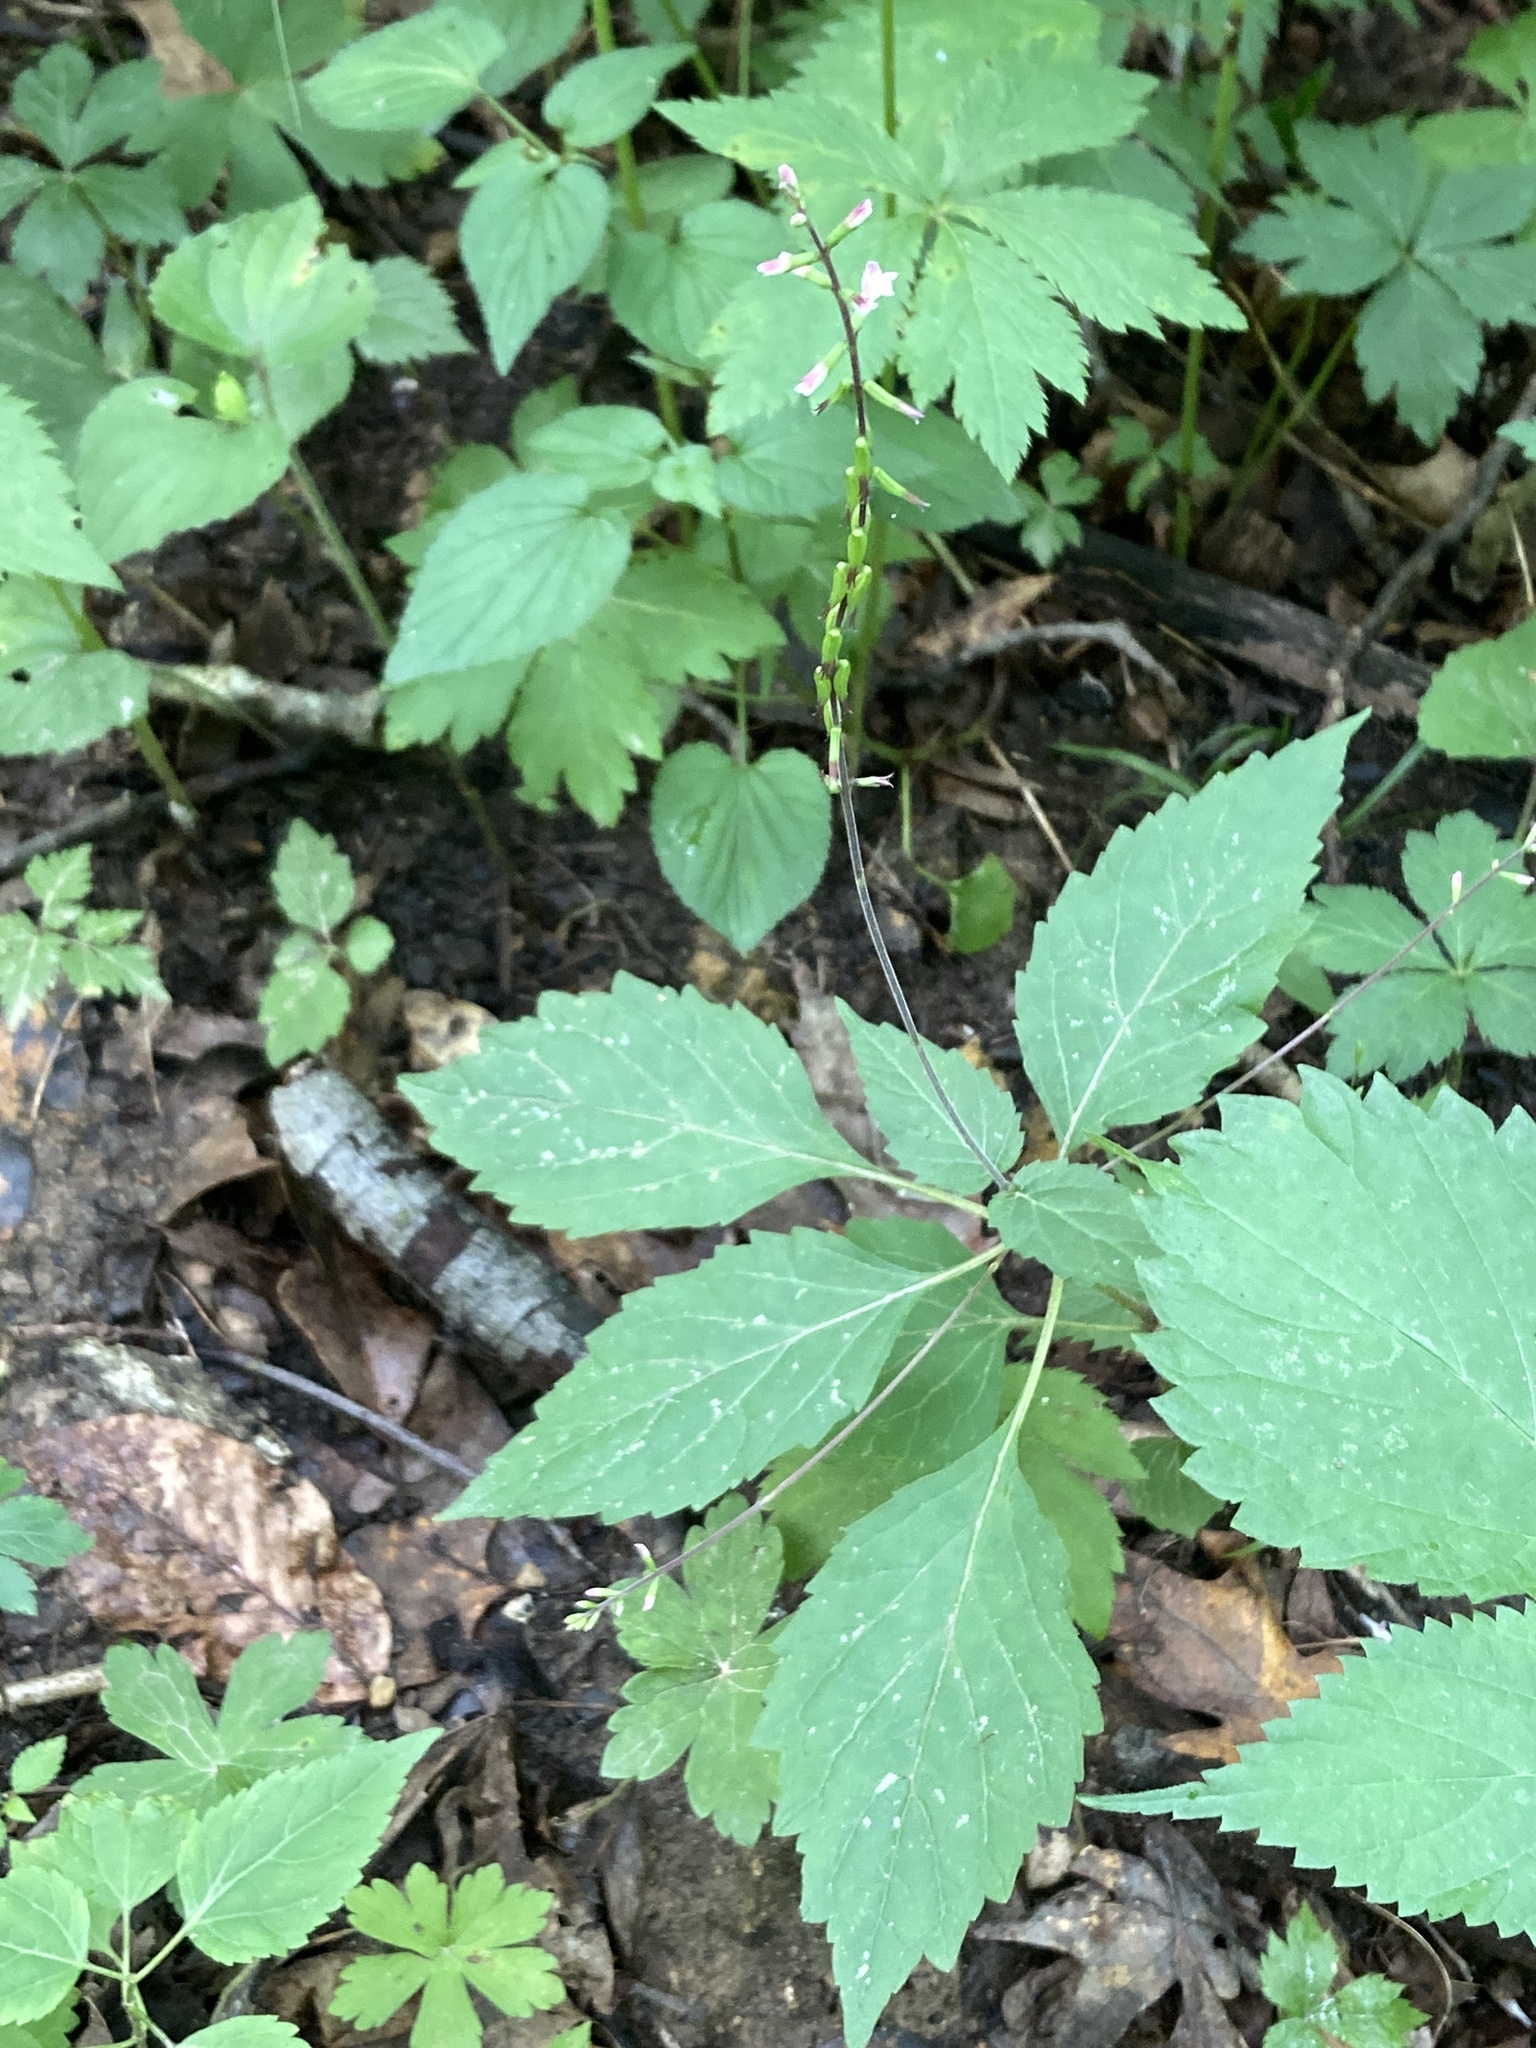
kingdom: Plantae
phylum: Tracheophyta
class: Magnoliopsida
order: Lamiales
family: Phrymaceae
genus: Phryma
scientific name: Phryma leptostachya
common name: American lopseed
